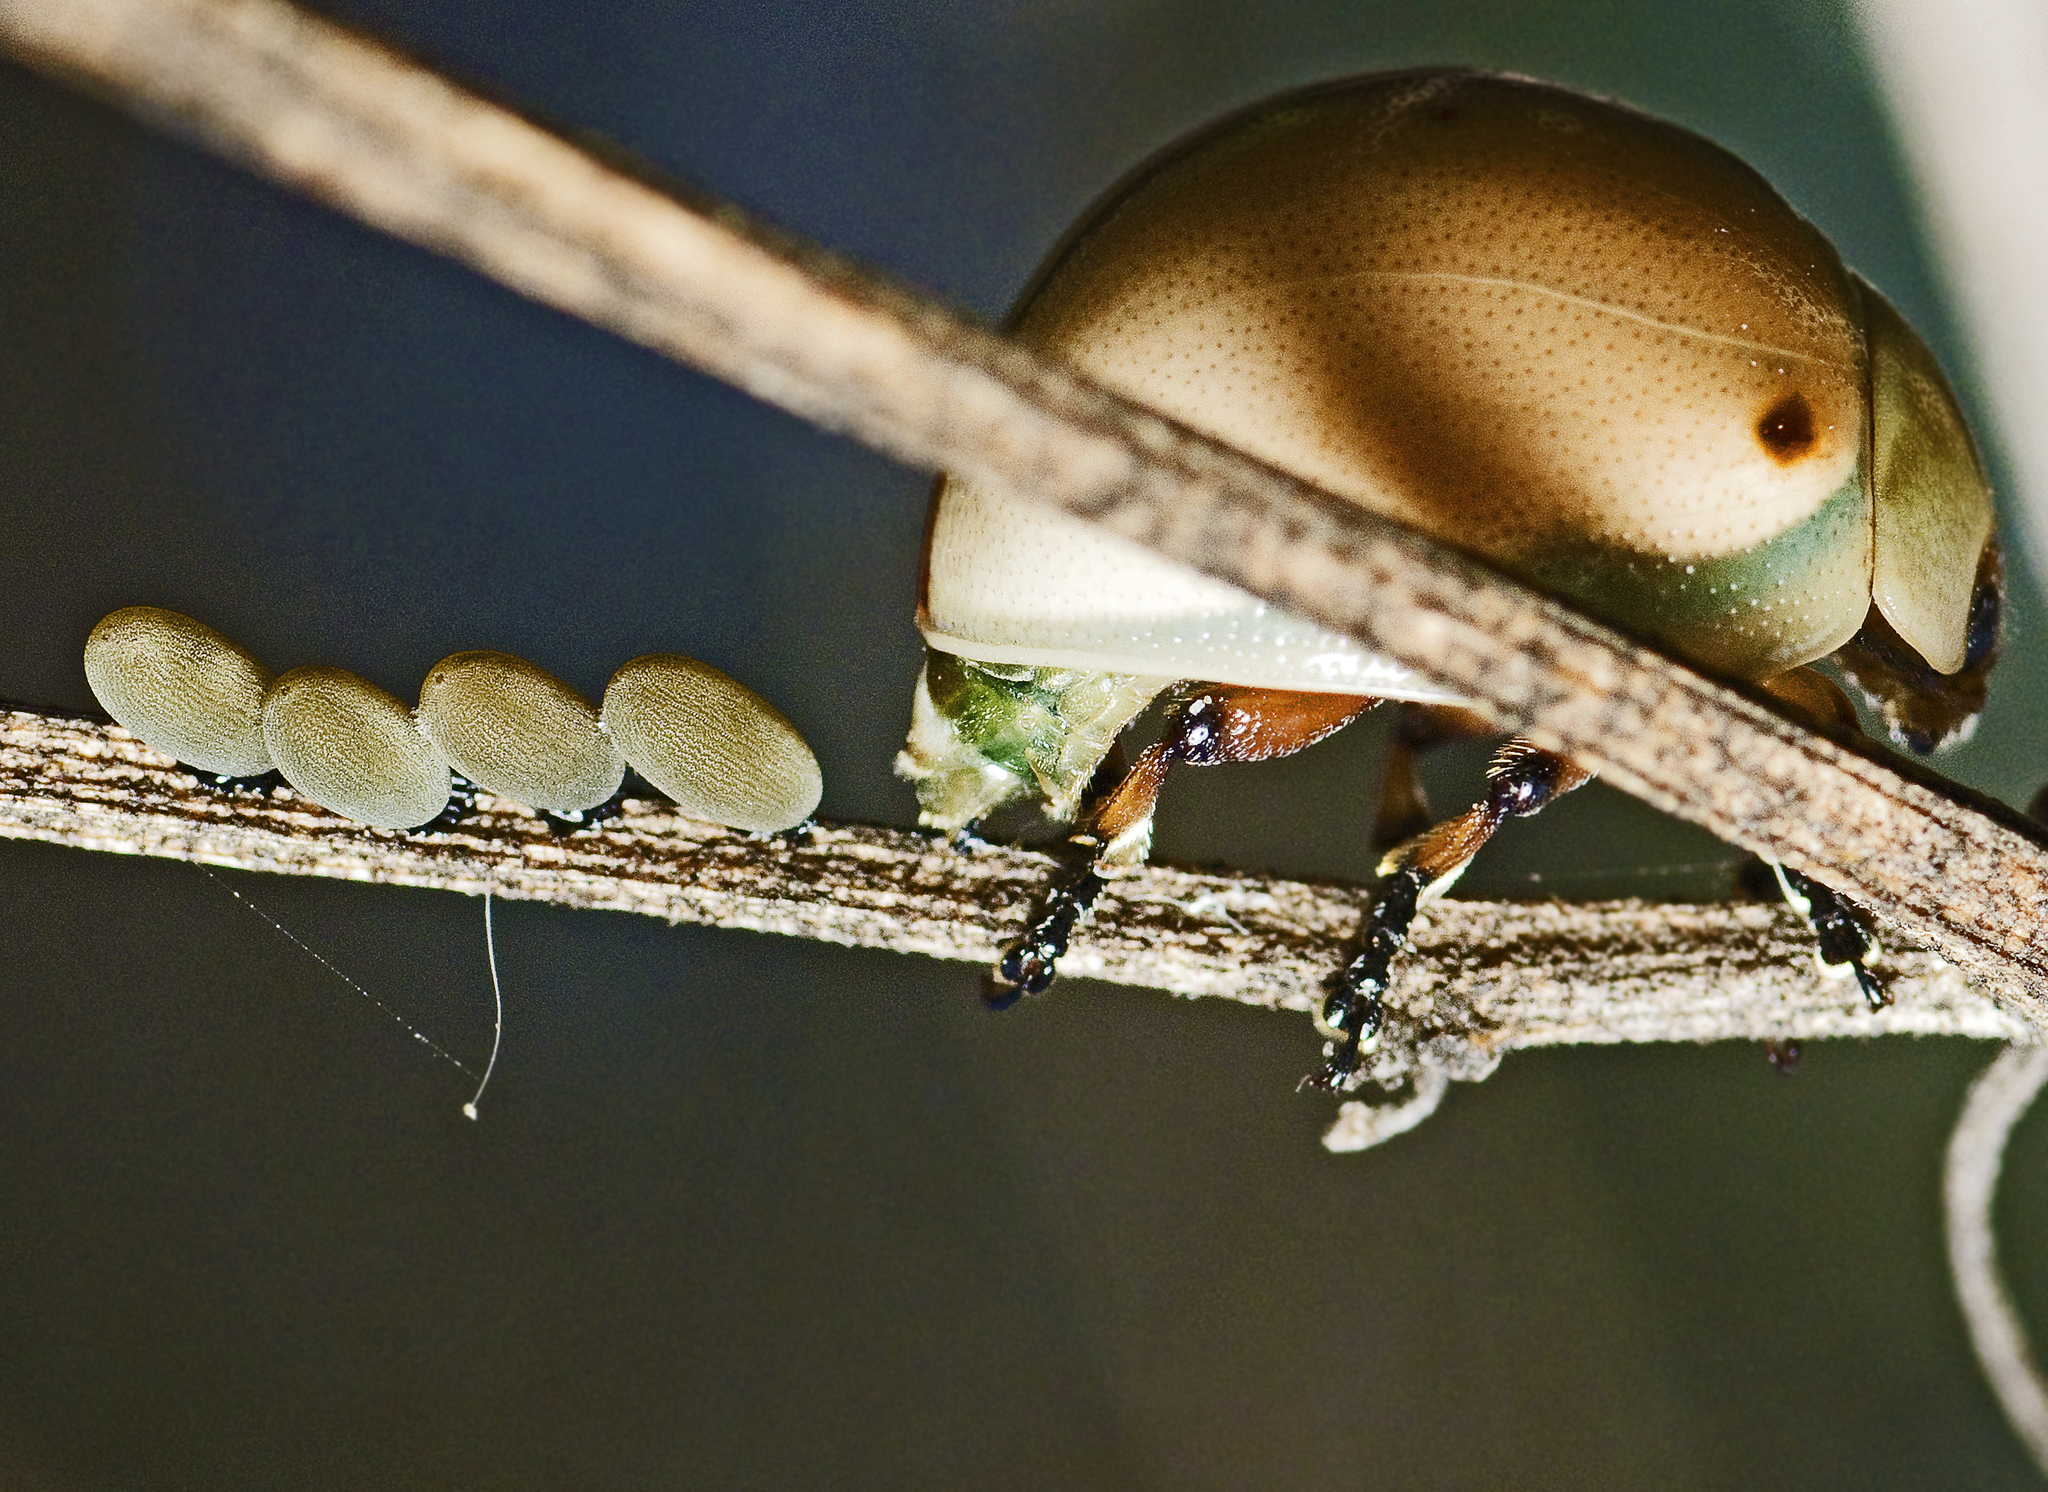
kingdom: Animalia
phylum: Arthropoda
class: Insecta
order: Coleoptera
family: Chrysomelidae
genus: Dicranosterna
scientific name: Dicranosterna
